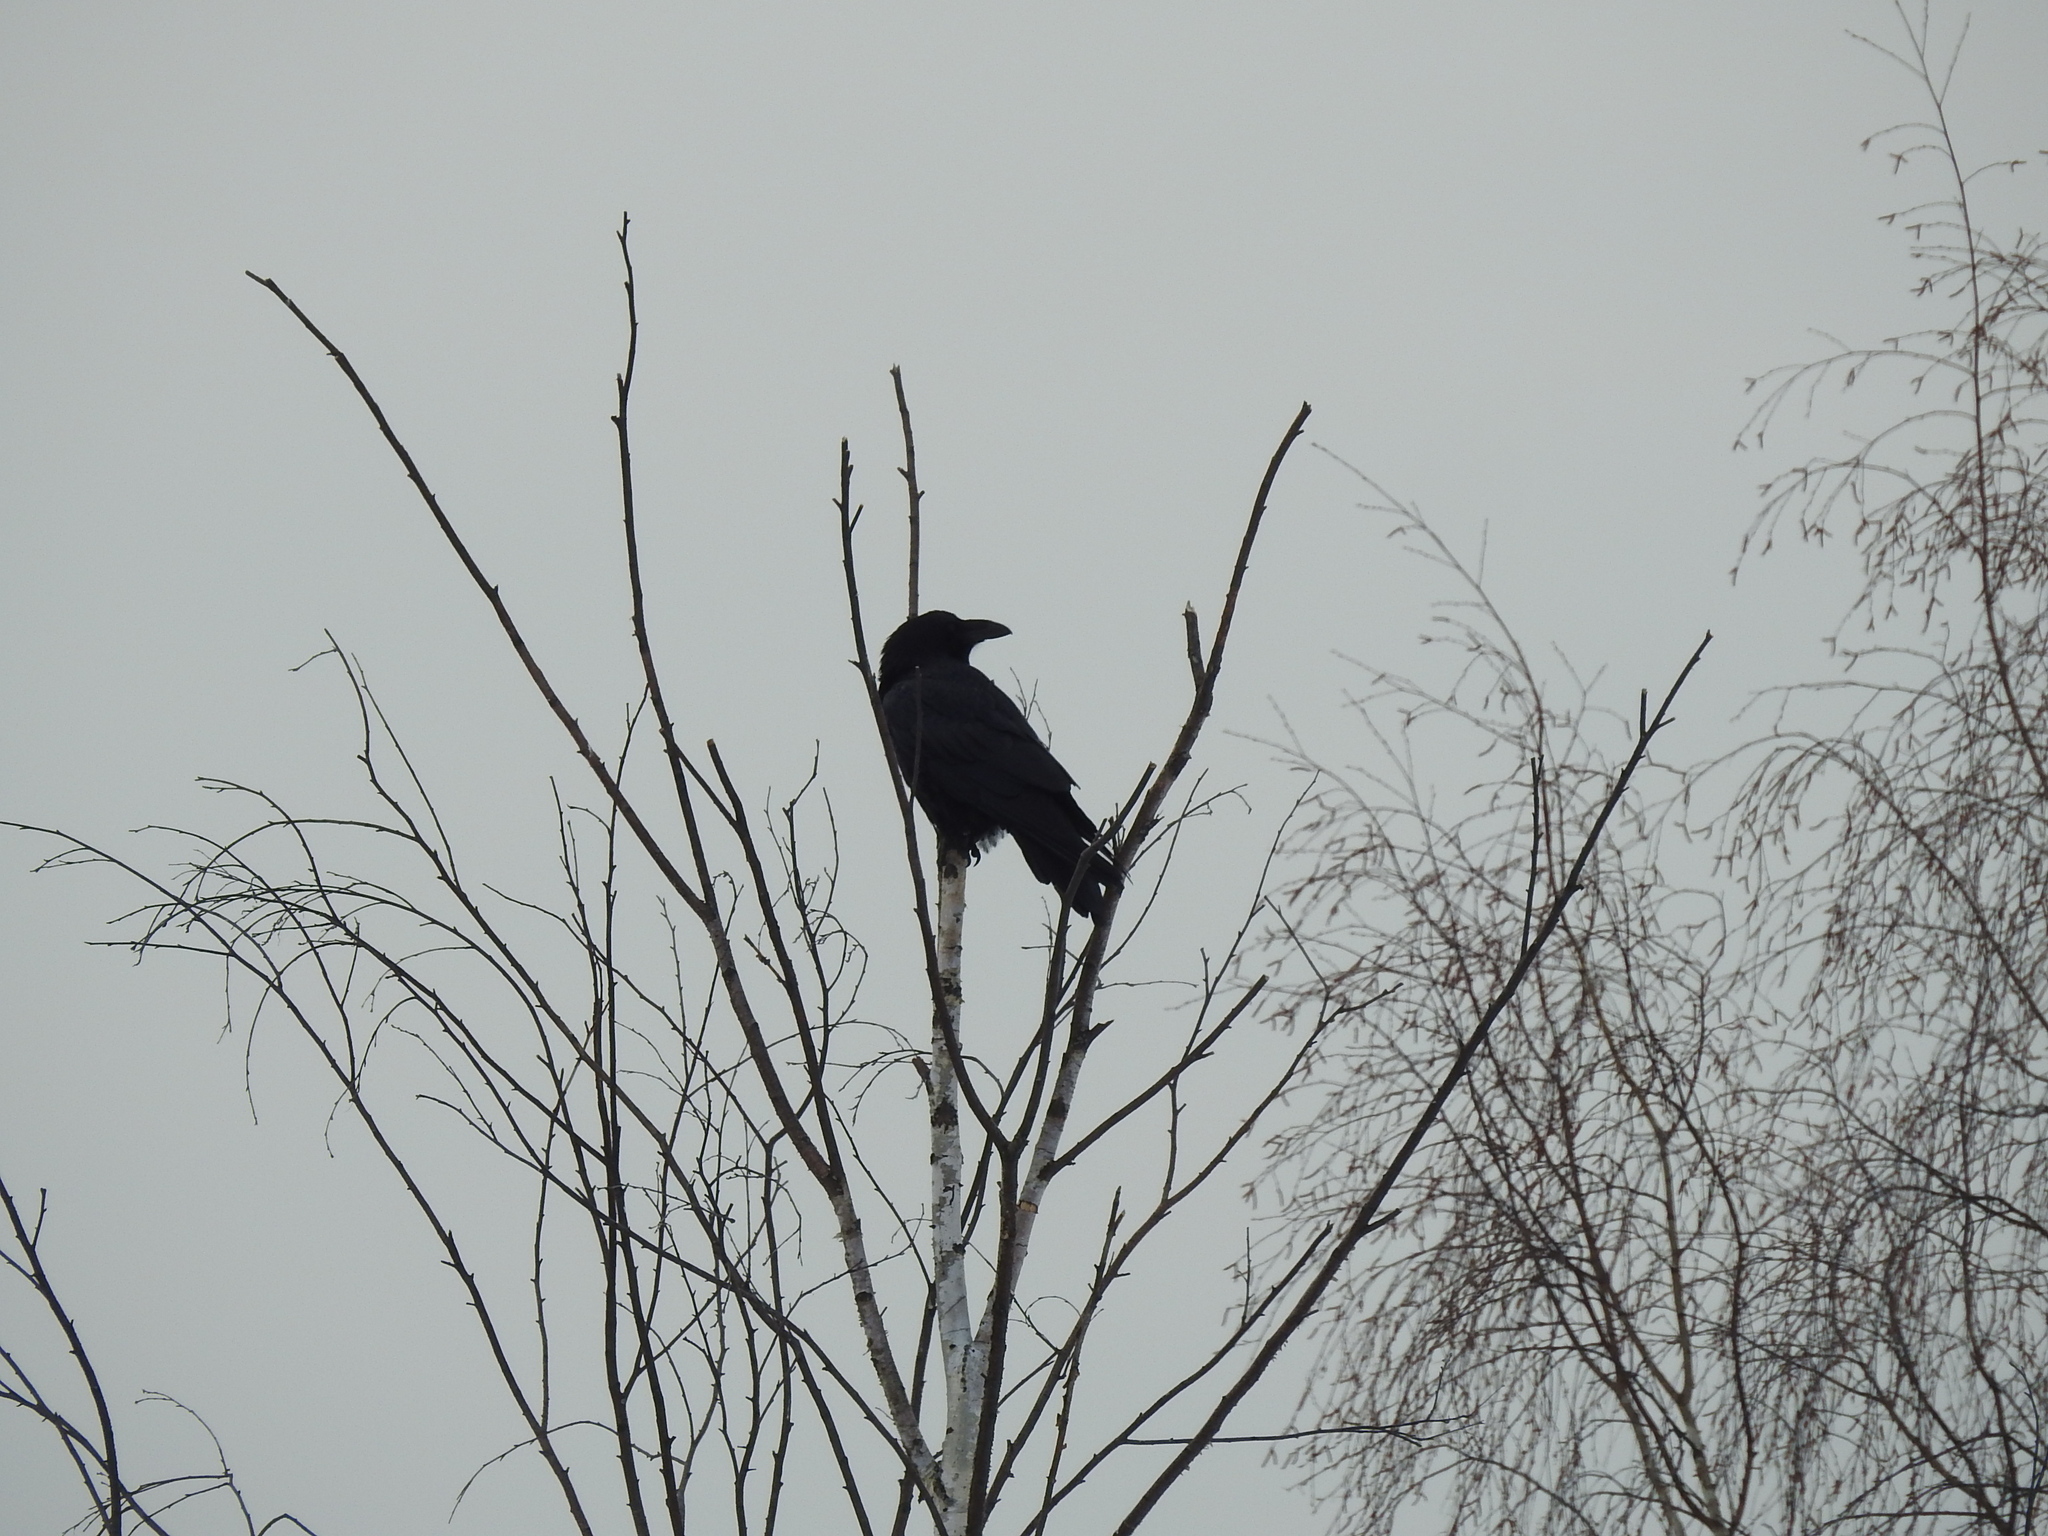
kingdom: Animalia
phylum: Chordata
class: Aves
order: Passeriformes
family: Corvidae
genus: Corvus
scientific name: Corvus corax
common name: Common raven
